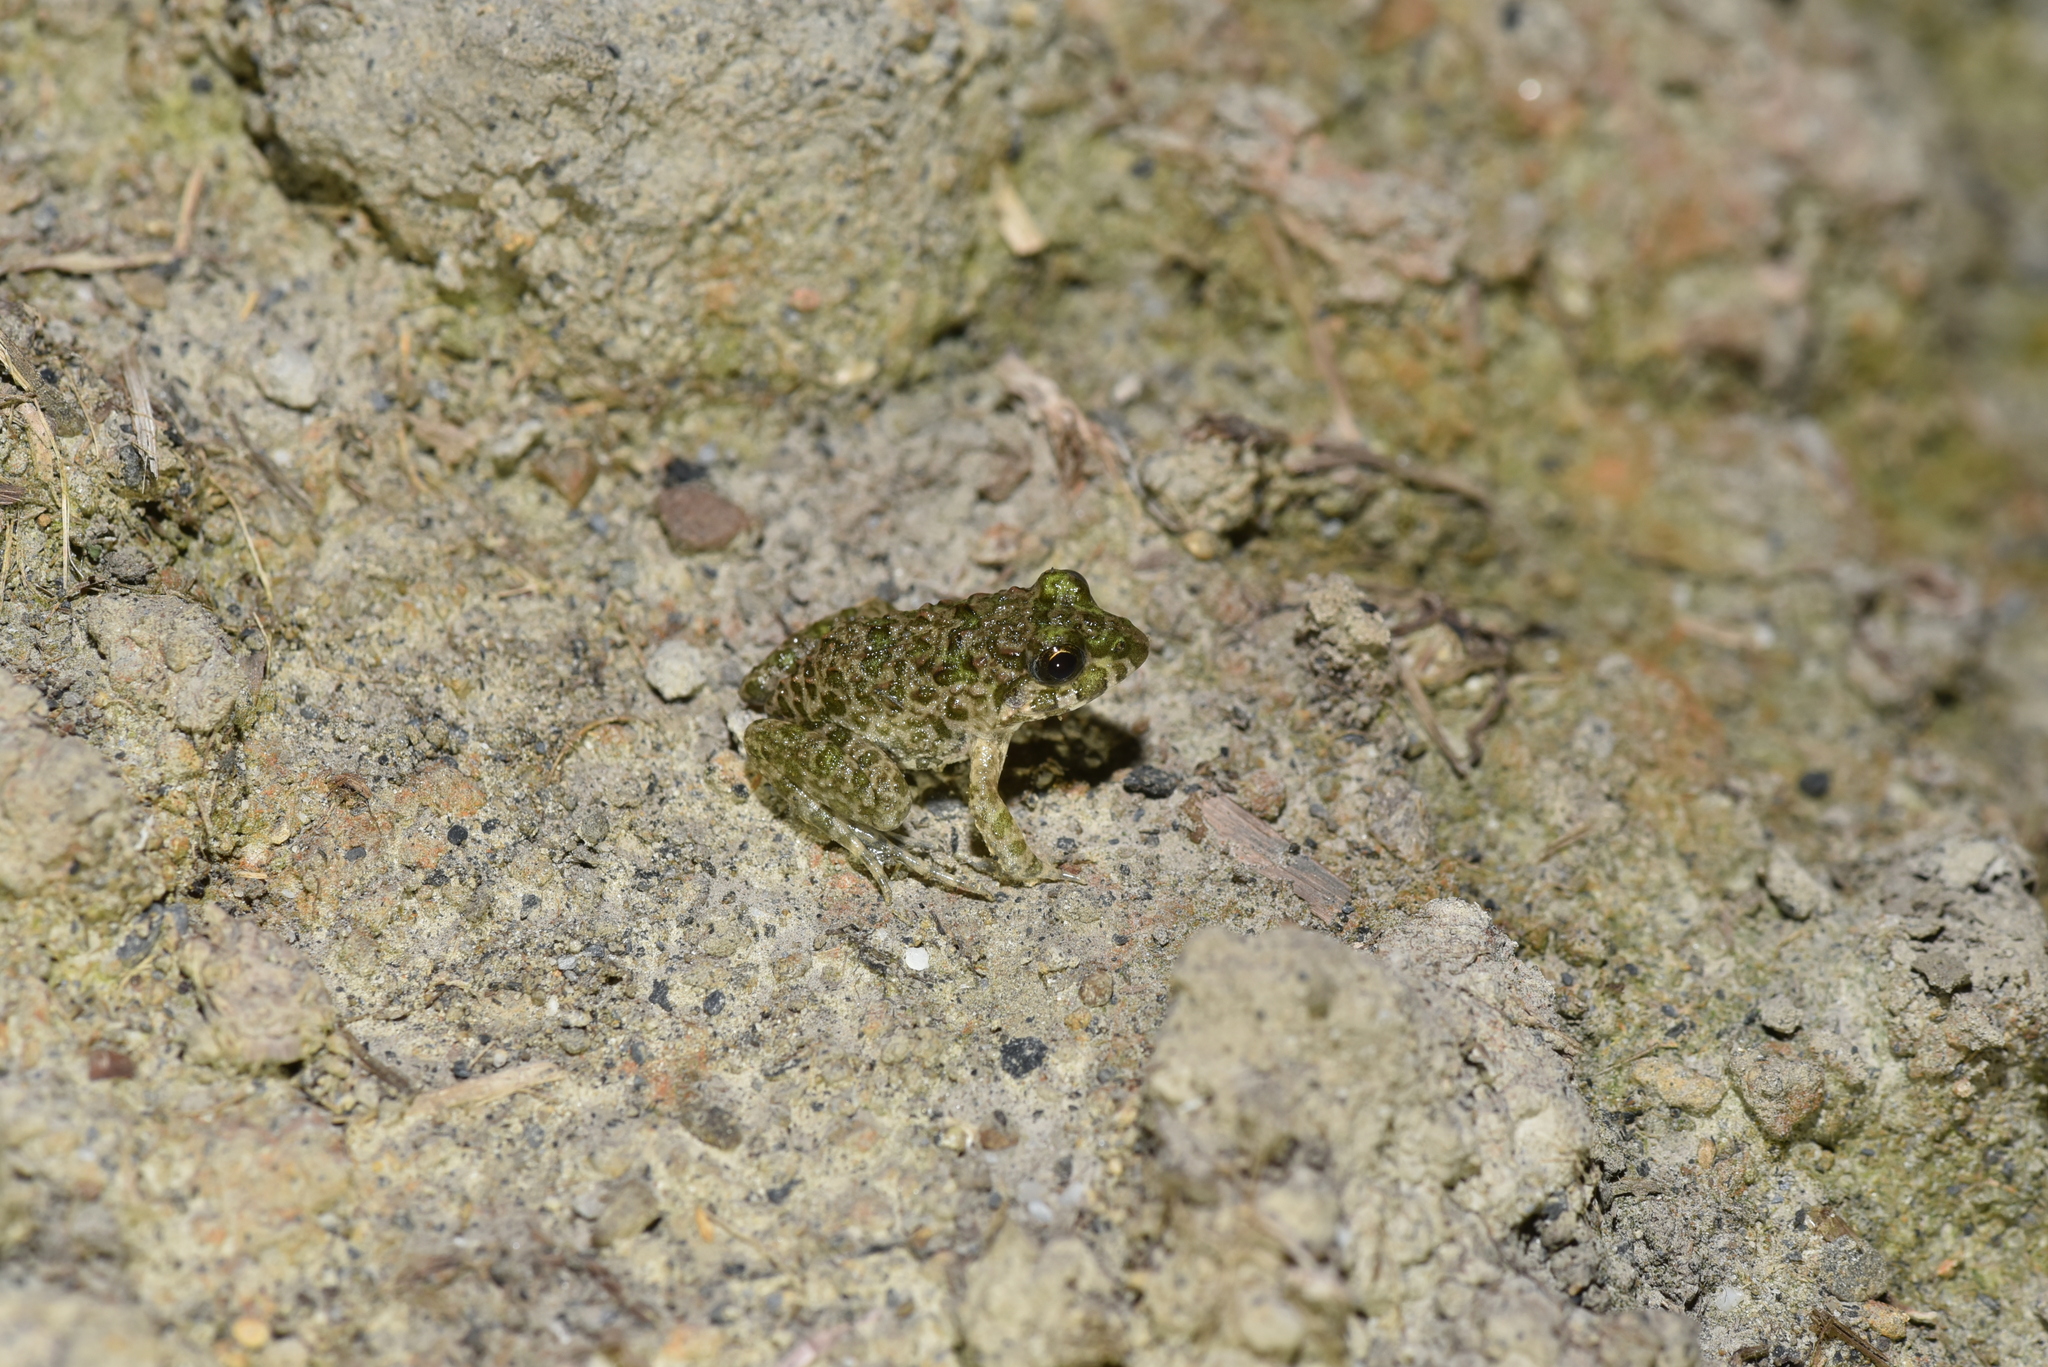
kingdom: Animalia
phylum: Chordata
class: Amphibia
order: Anura
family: Dicroglossidae
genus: Fejervarya
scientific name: Fejervarya limnocharis
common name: Asian grass frog/common pond frog/field frog/grass frog/indian rice frog
